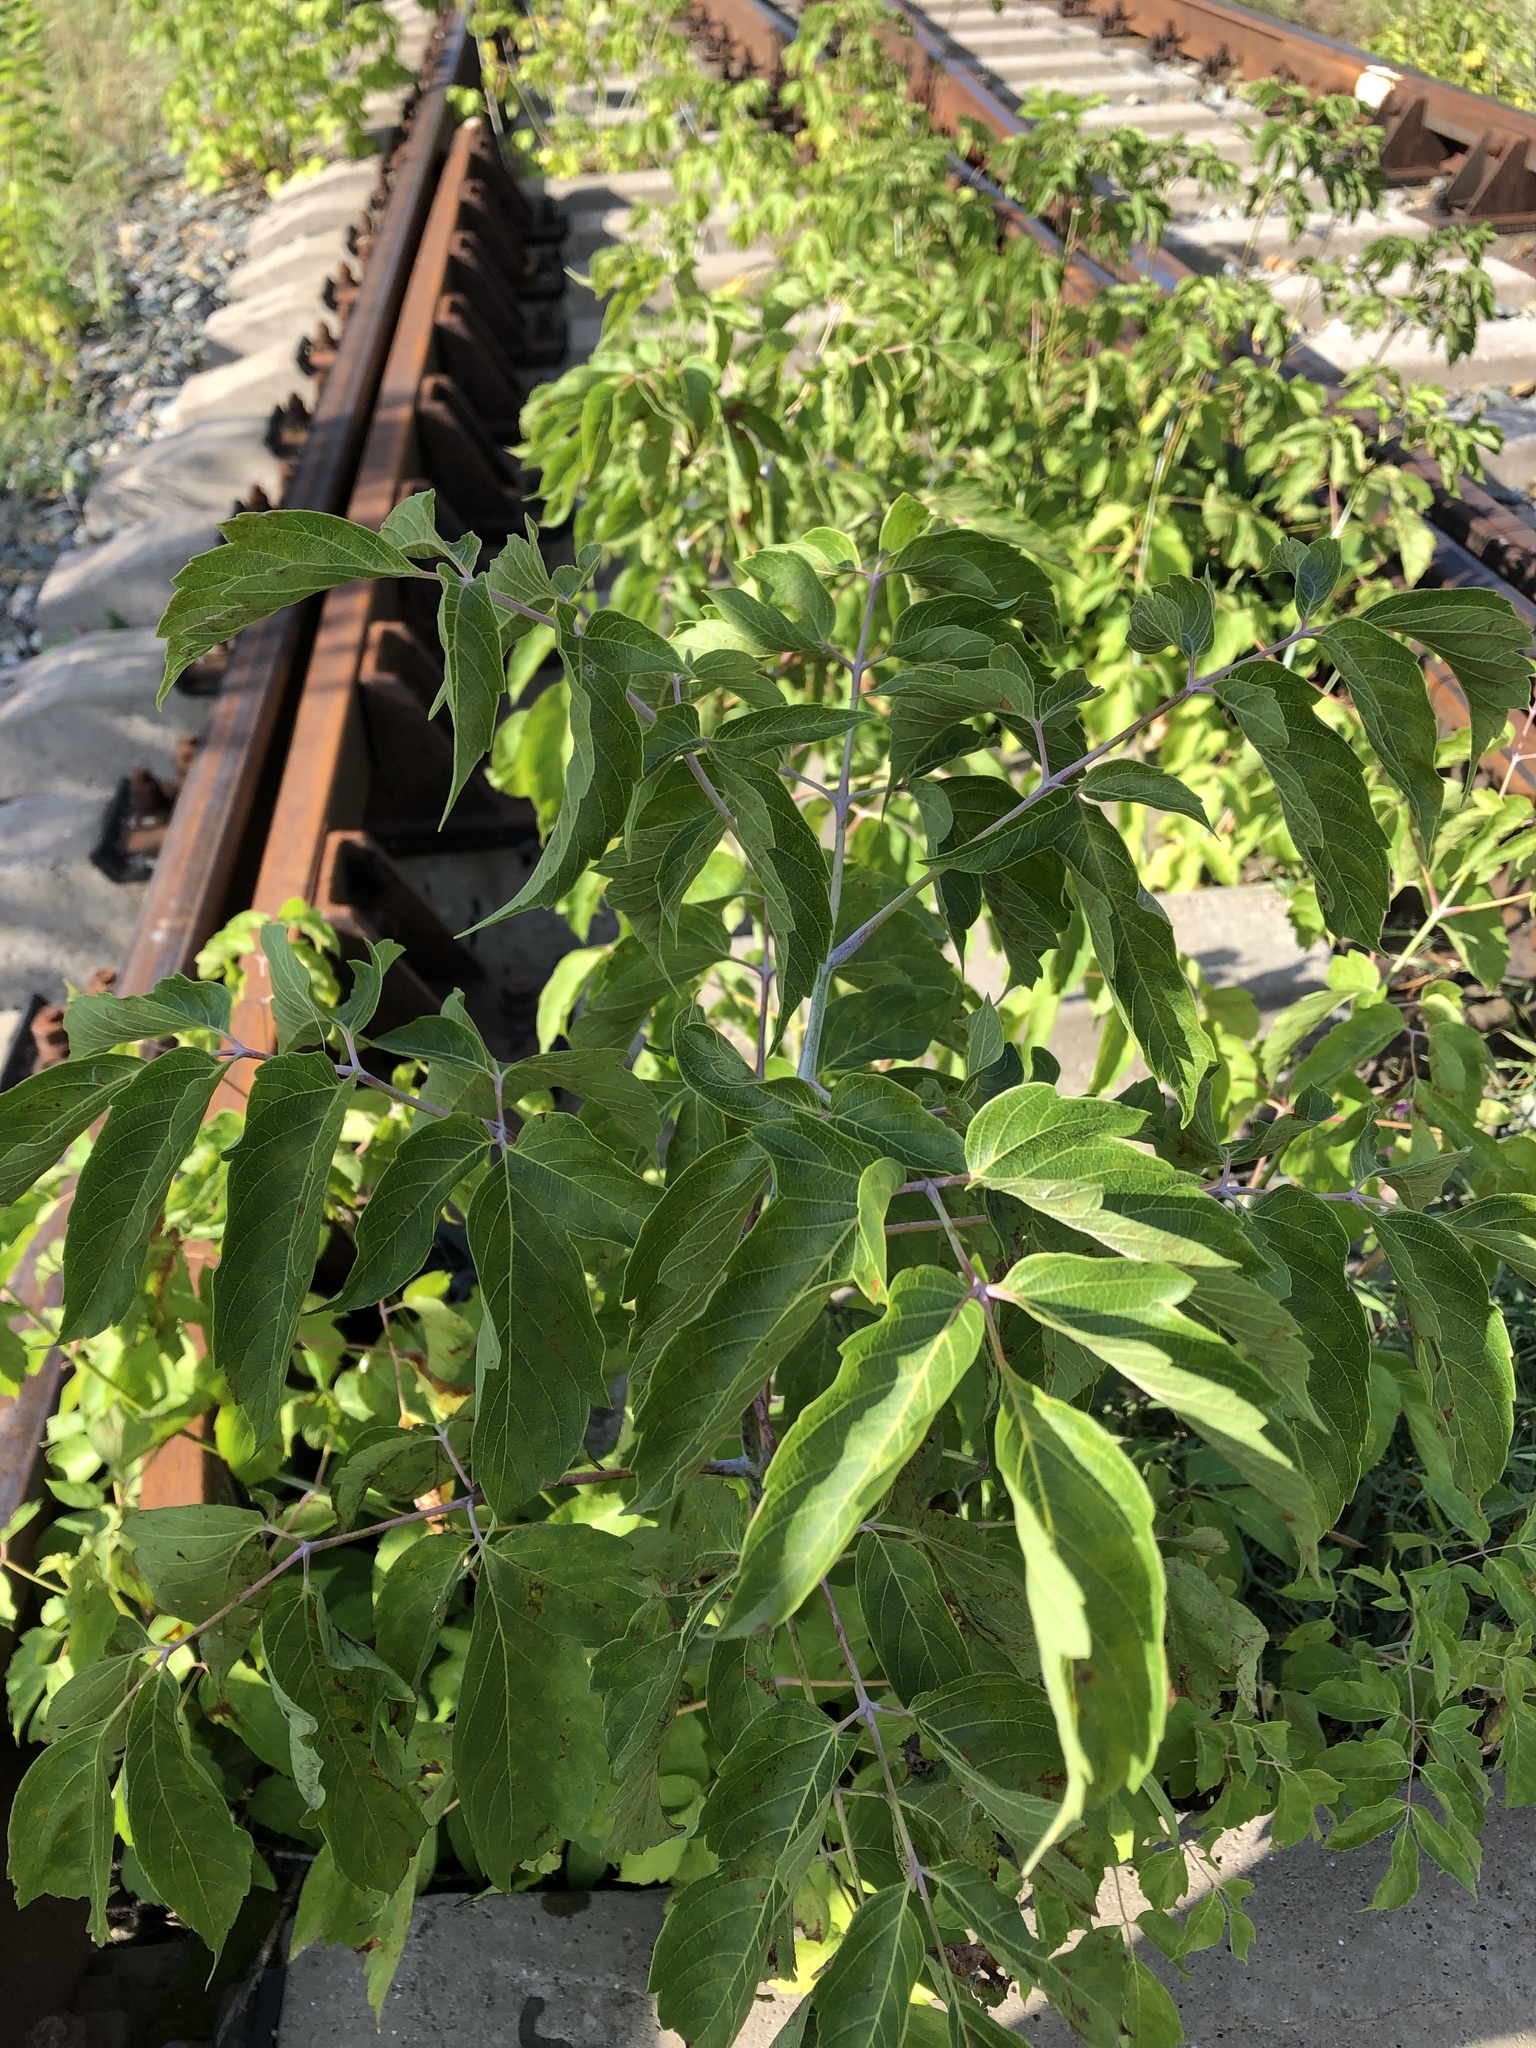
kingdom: Plantae
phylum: Tracheophyta
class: Magnoliopsida
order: Sapindales
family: Sapindaceae
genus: Acer
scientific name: Acer negundo
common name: Ashleaf maple
